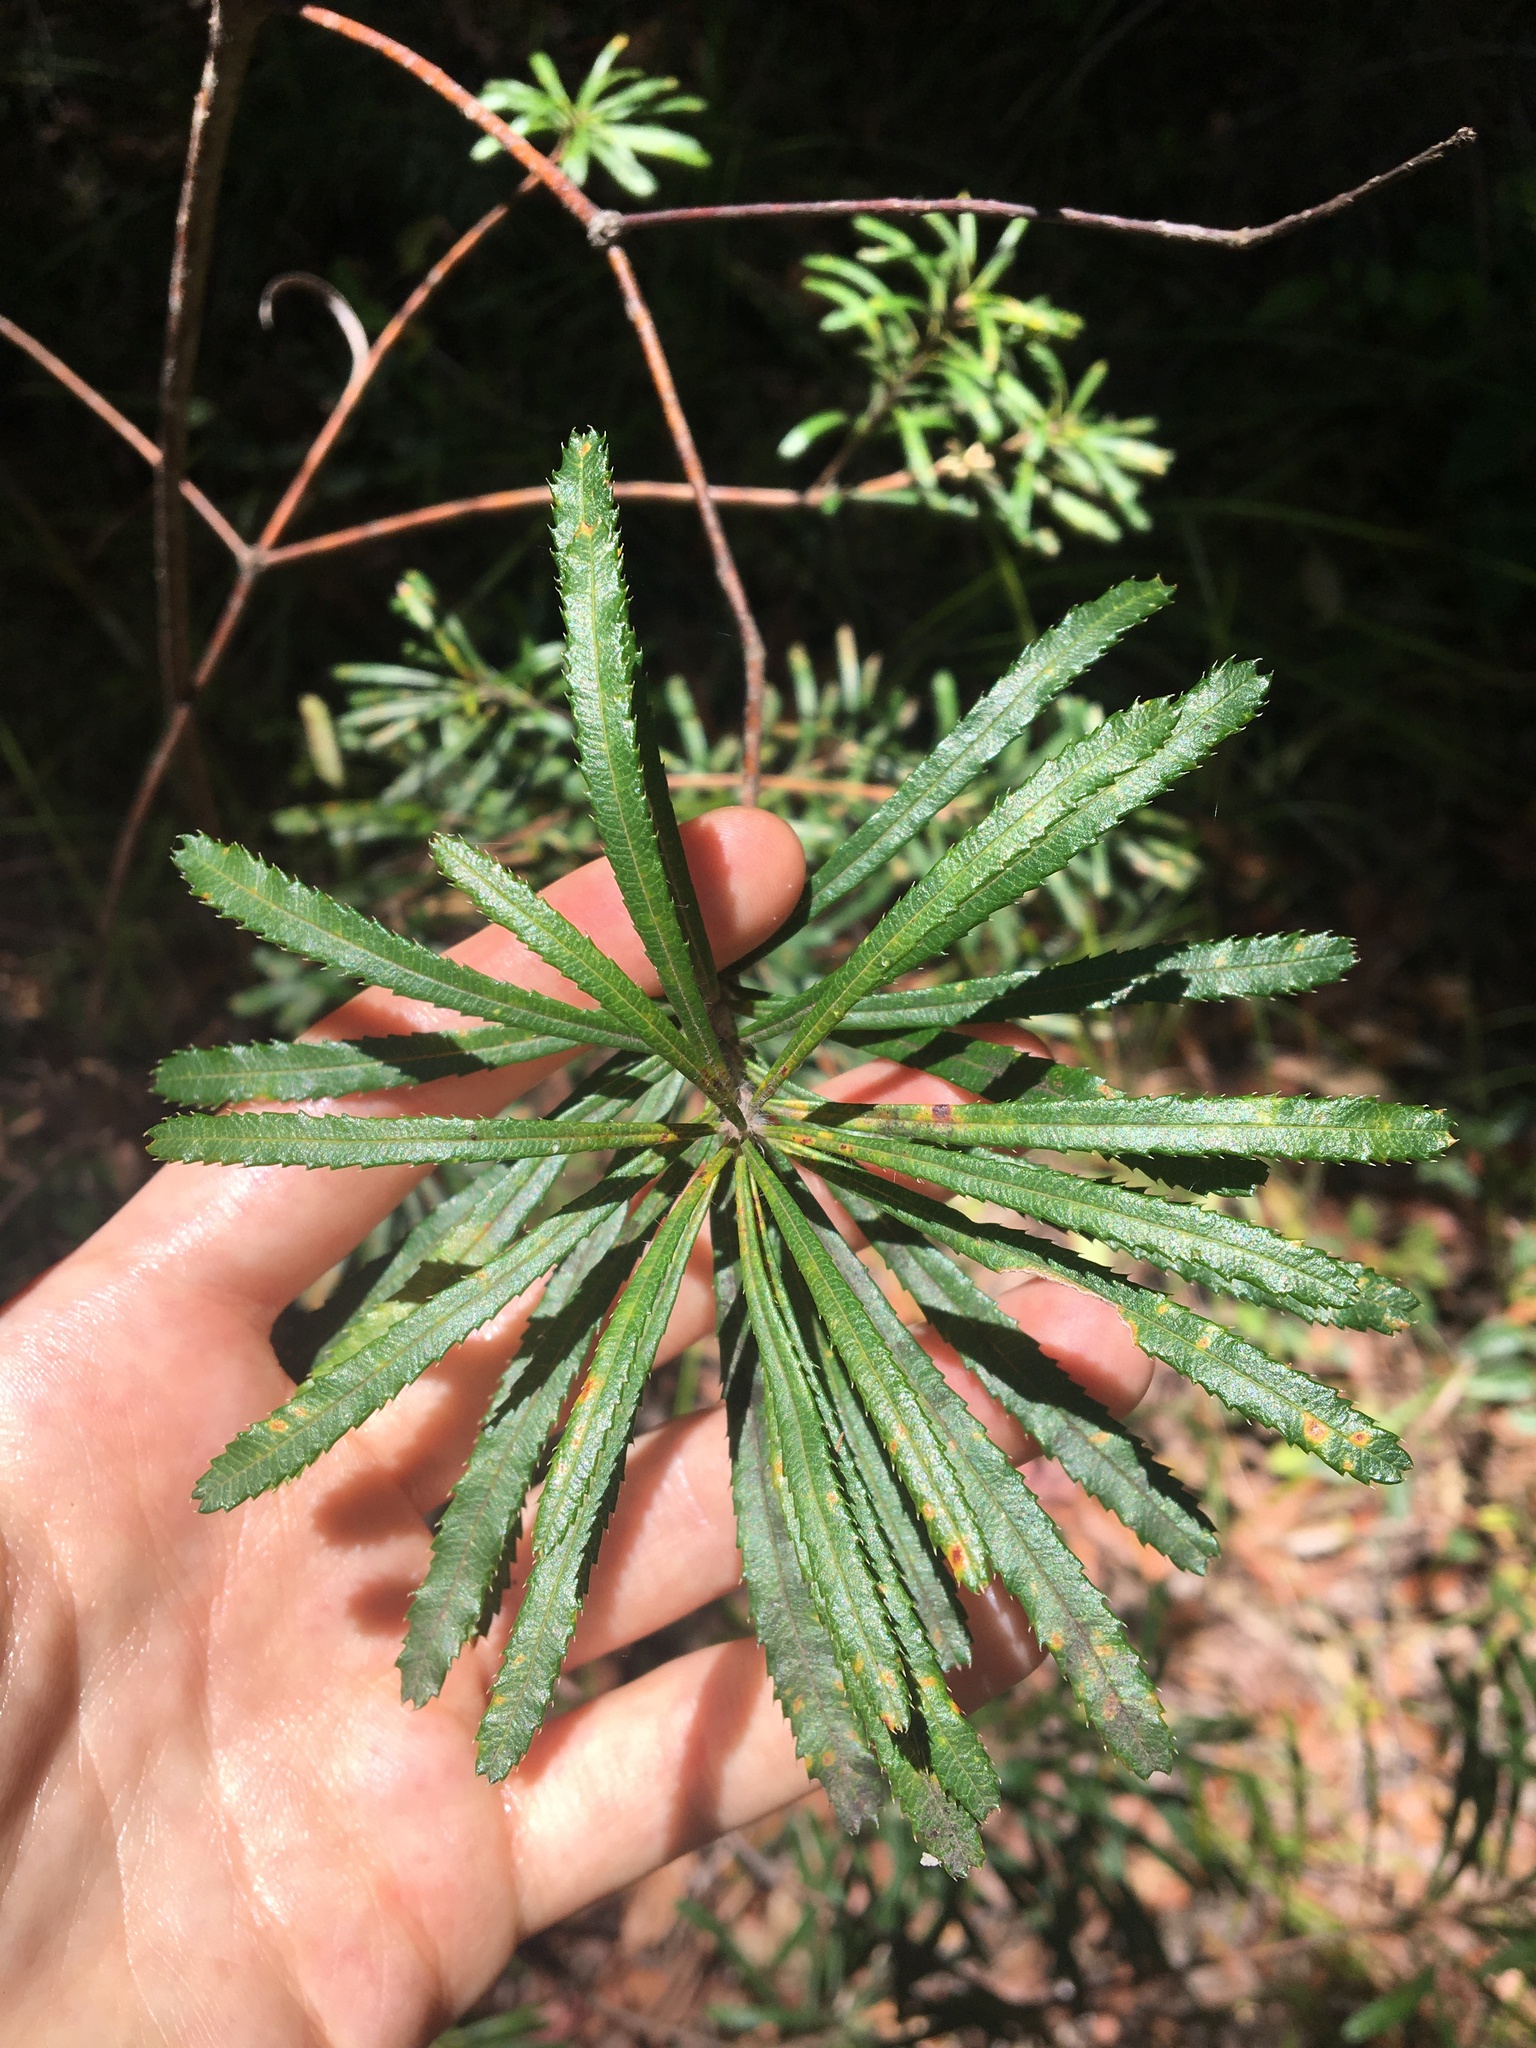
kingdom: Plantae
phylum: Tracheophyta
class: Magnoliopsida
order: Proteales
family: Proteaceae
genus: Banksia
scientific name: Banksia spinulosa
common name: Hairpin banksia
